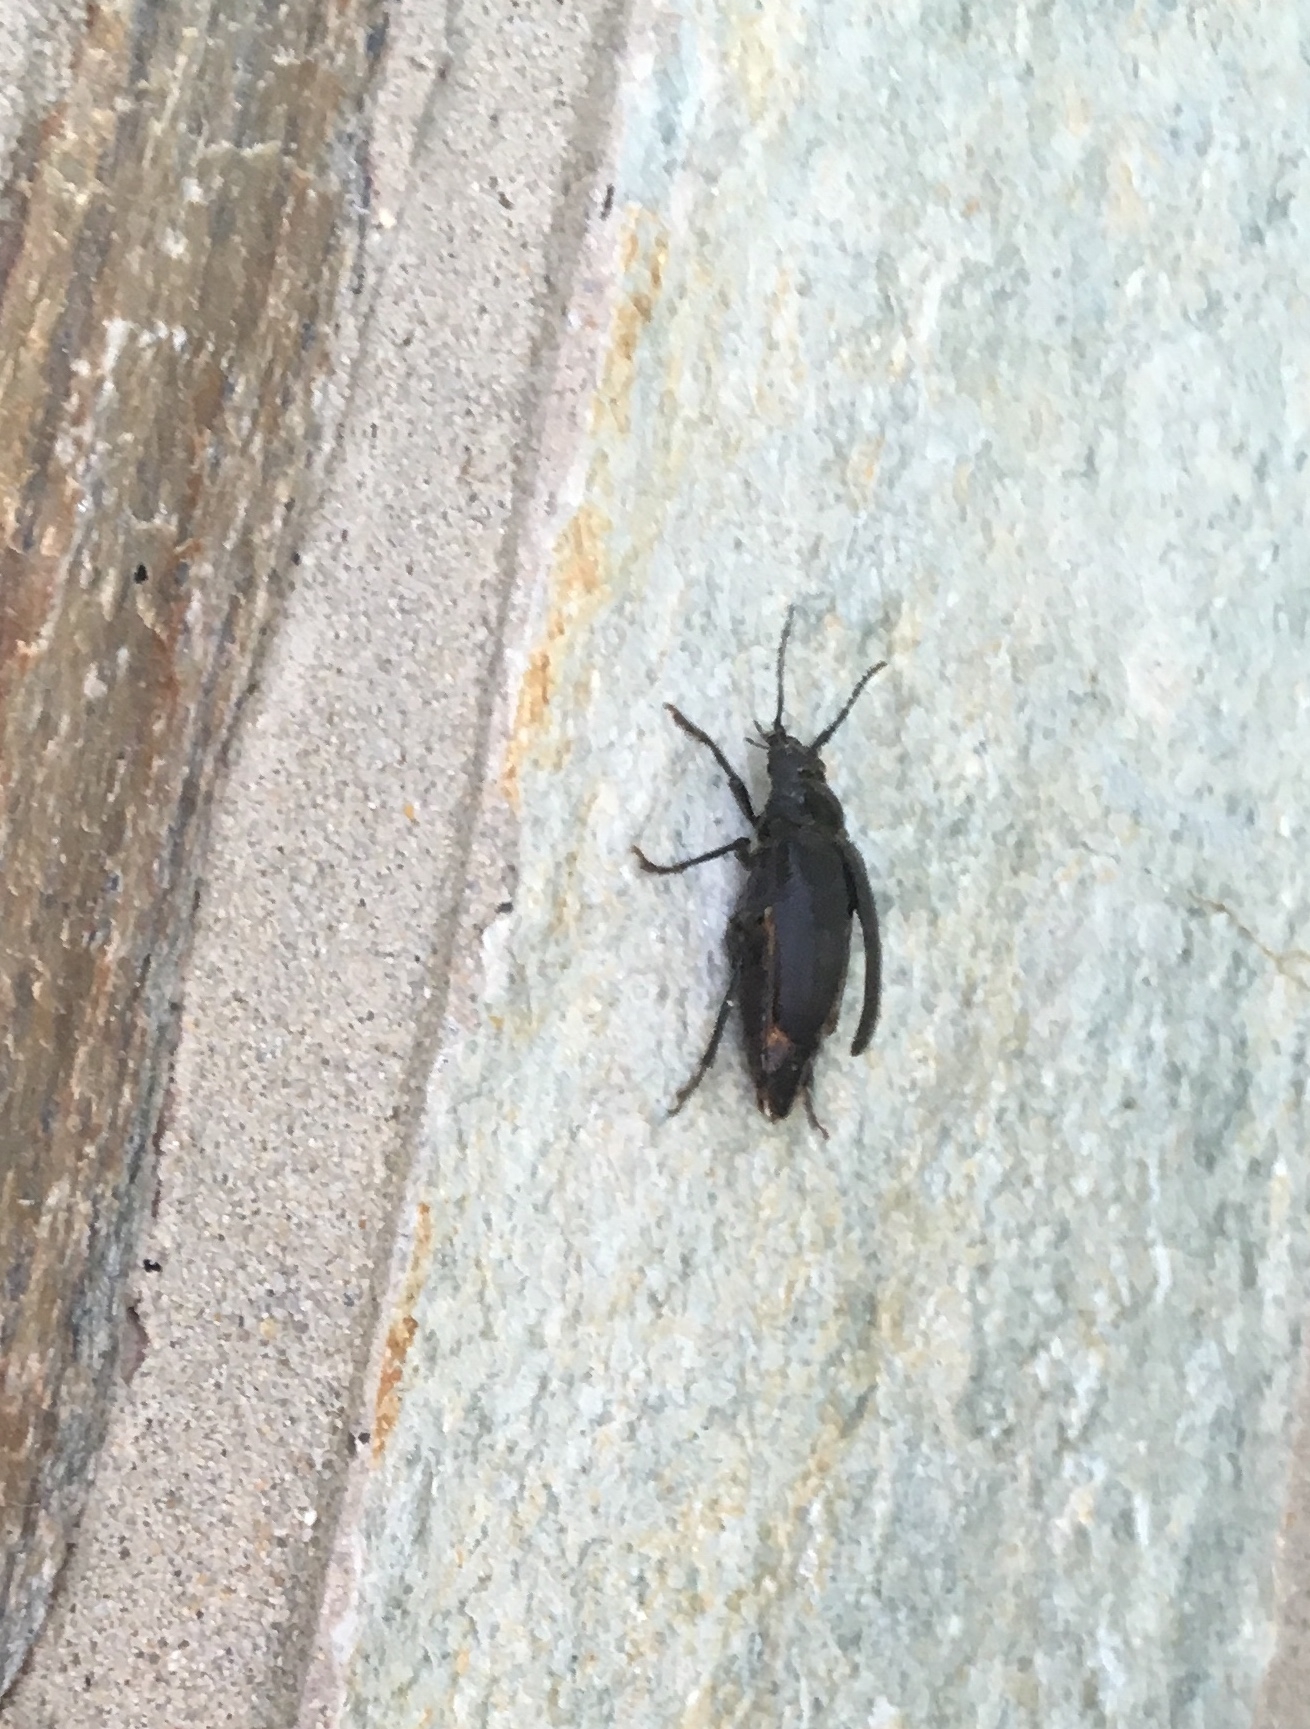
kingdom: Animalia
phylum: Arthropoda
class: Insecta
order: Coleoptera
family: Cerambycidae
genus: Prionus
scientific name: Prionus laticollis
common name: Broad necked prionus
